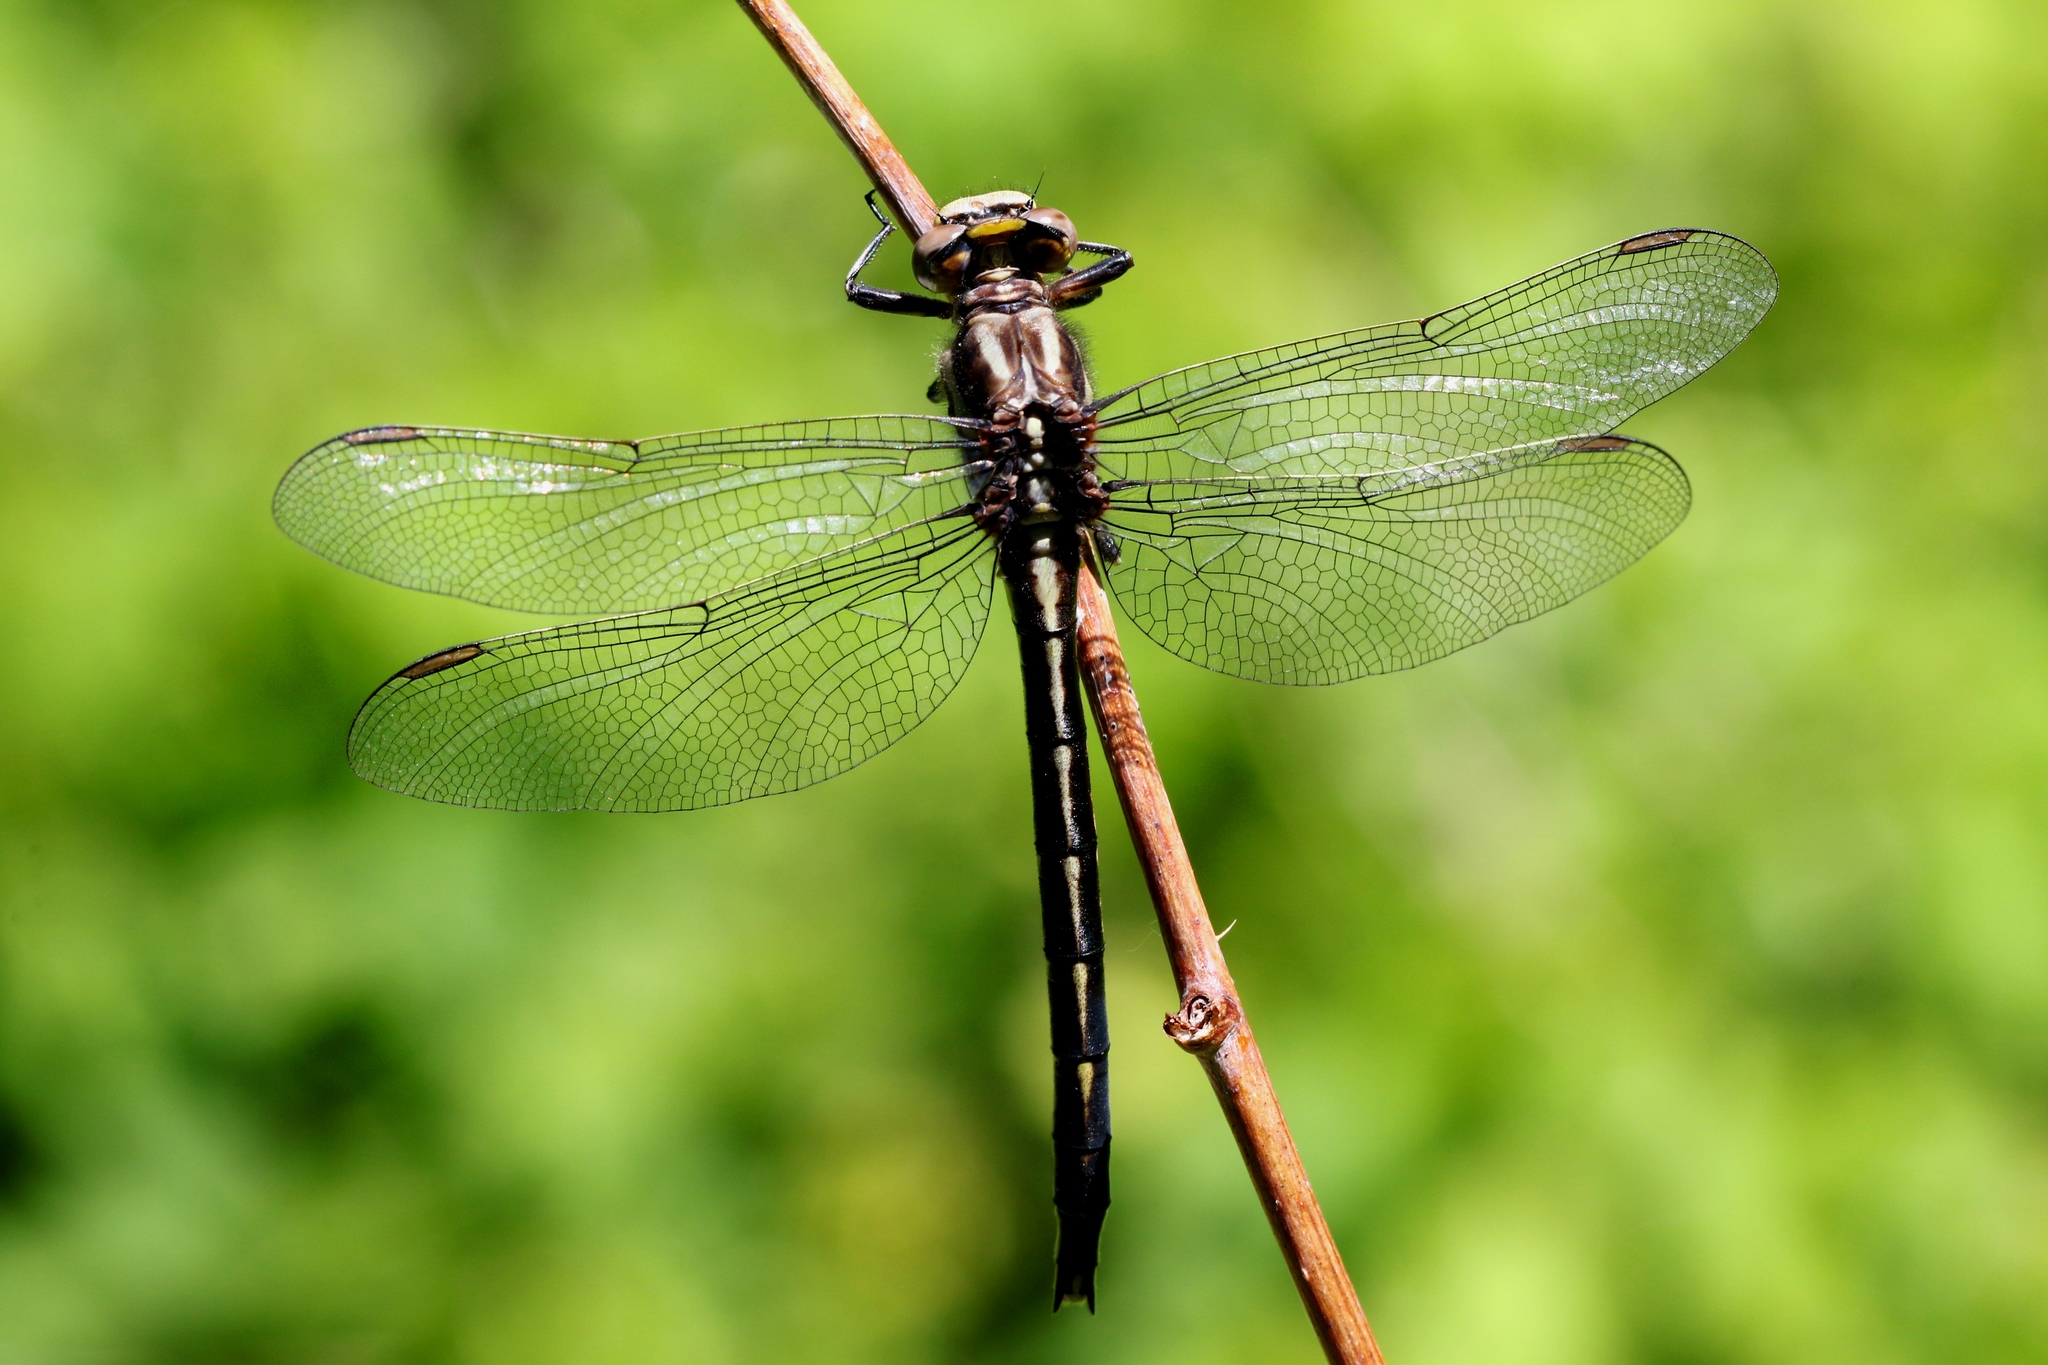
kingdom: Animalia
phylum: Arthropoda
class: Insecta
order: Odonata
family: Gomphidae
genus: Phanogomphus
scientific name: Phanogomphus spicatus
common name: Dusky clubtail
